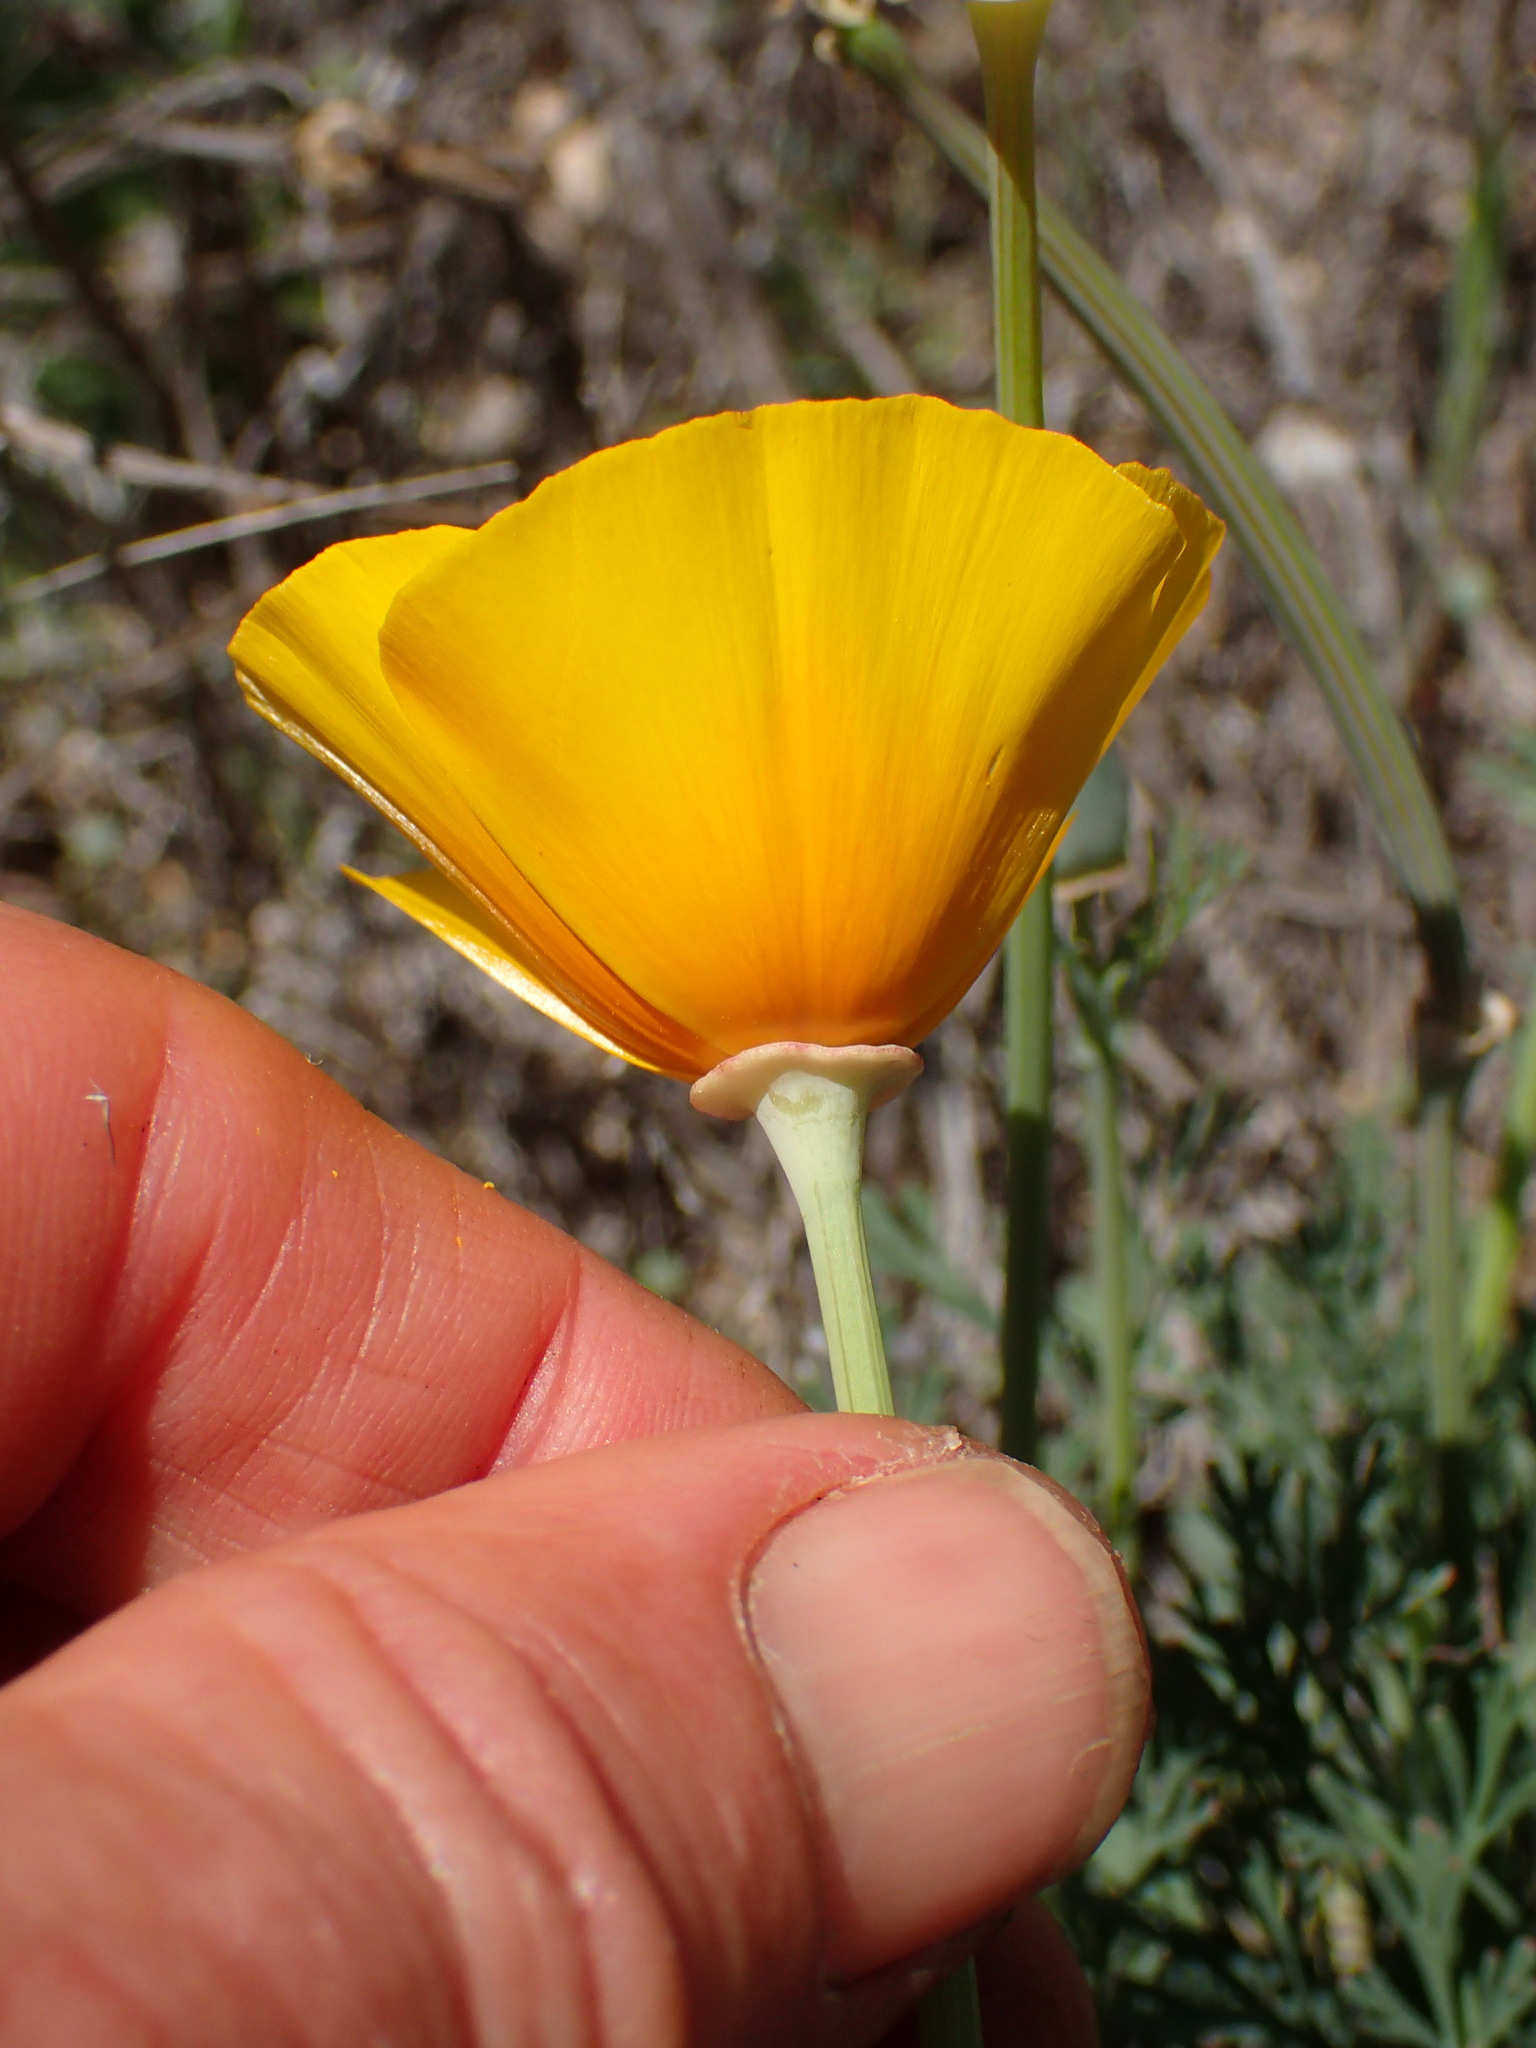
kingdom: Plantae
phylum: Tracheophyta
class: Magnoliopsida
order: Ranunculales
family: Papaveraceae
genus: Eschscholzia
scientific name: Eschscholzia californica
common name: California poppy
